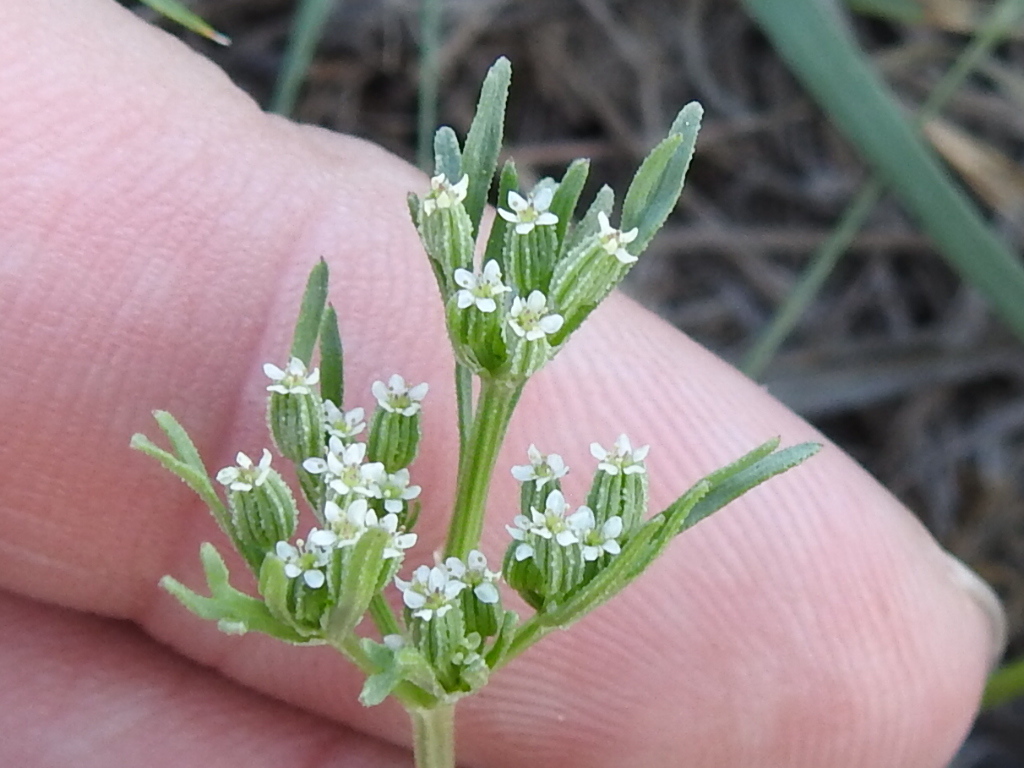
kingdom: Plantae
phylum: Tracheophyta
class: Magnoliopsida
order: Apiales
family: Apiaceae
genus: Ammoselinum
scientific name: Ammoselinum popei
